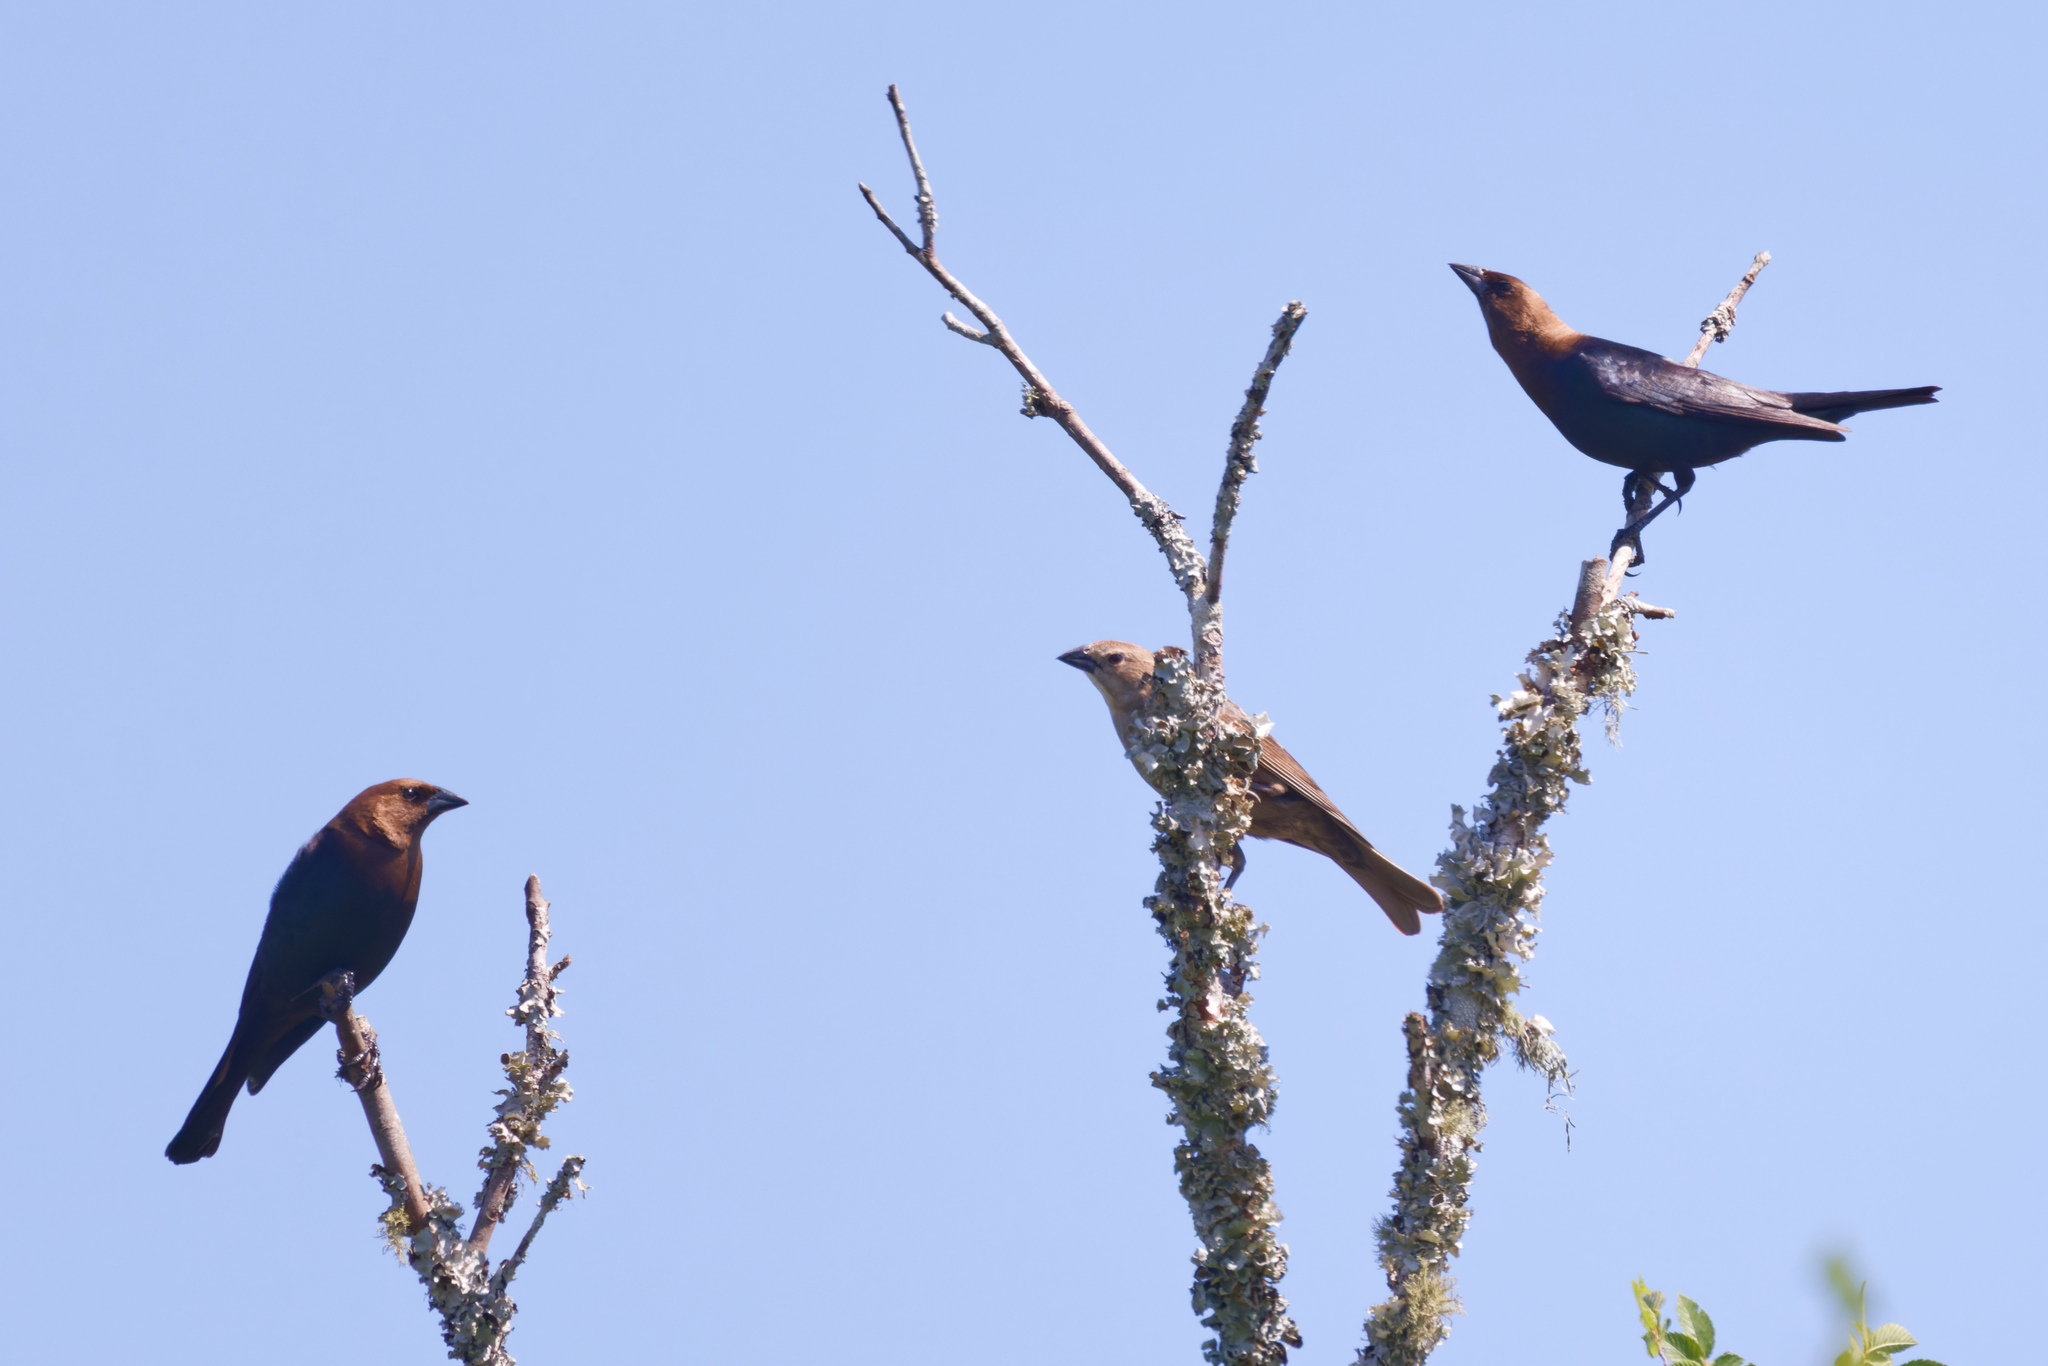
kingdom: Animalia
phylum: Chordata
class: Aves
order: Passeriformes
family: Icteridae
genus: Molothrus
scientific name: Molothrus ater
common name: Brown-headed cowbird
